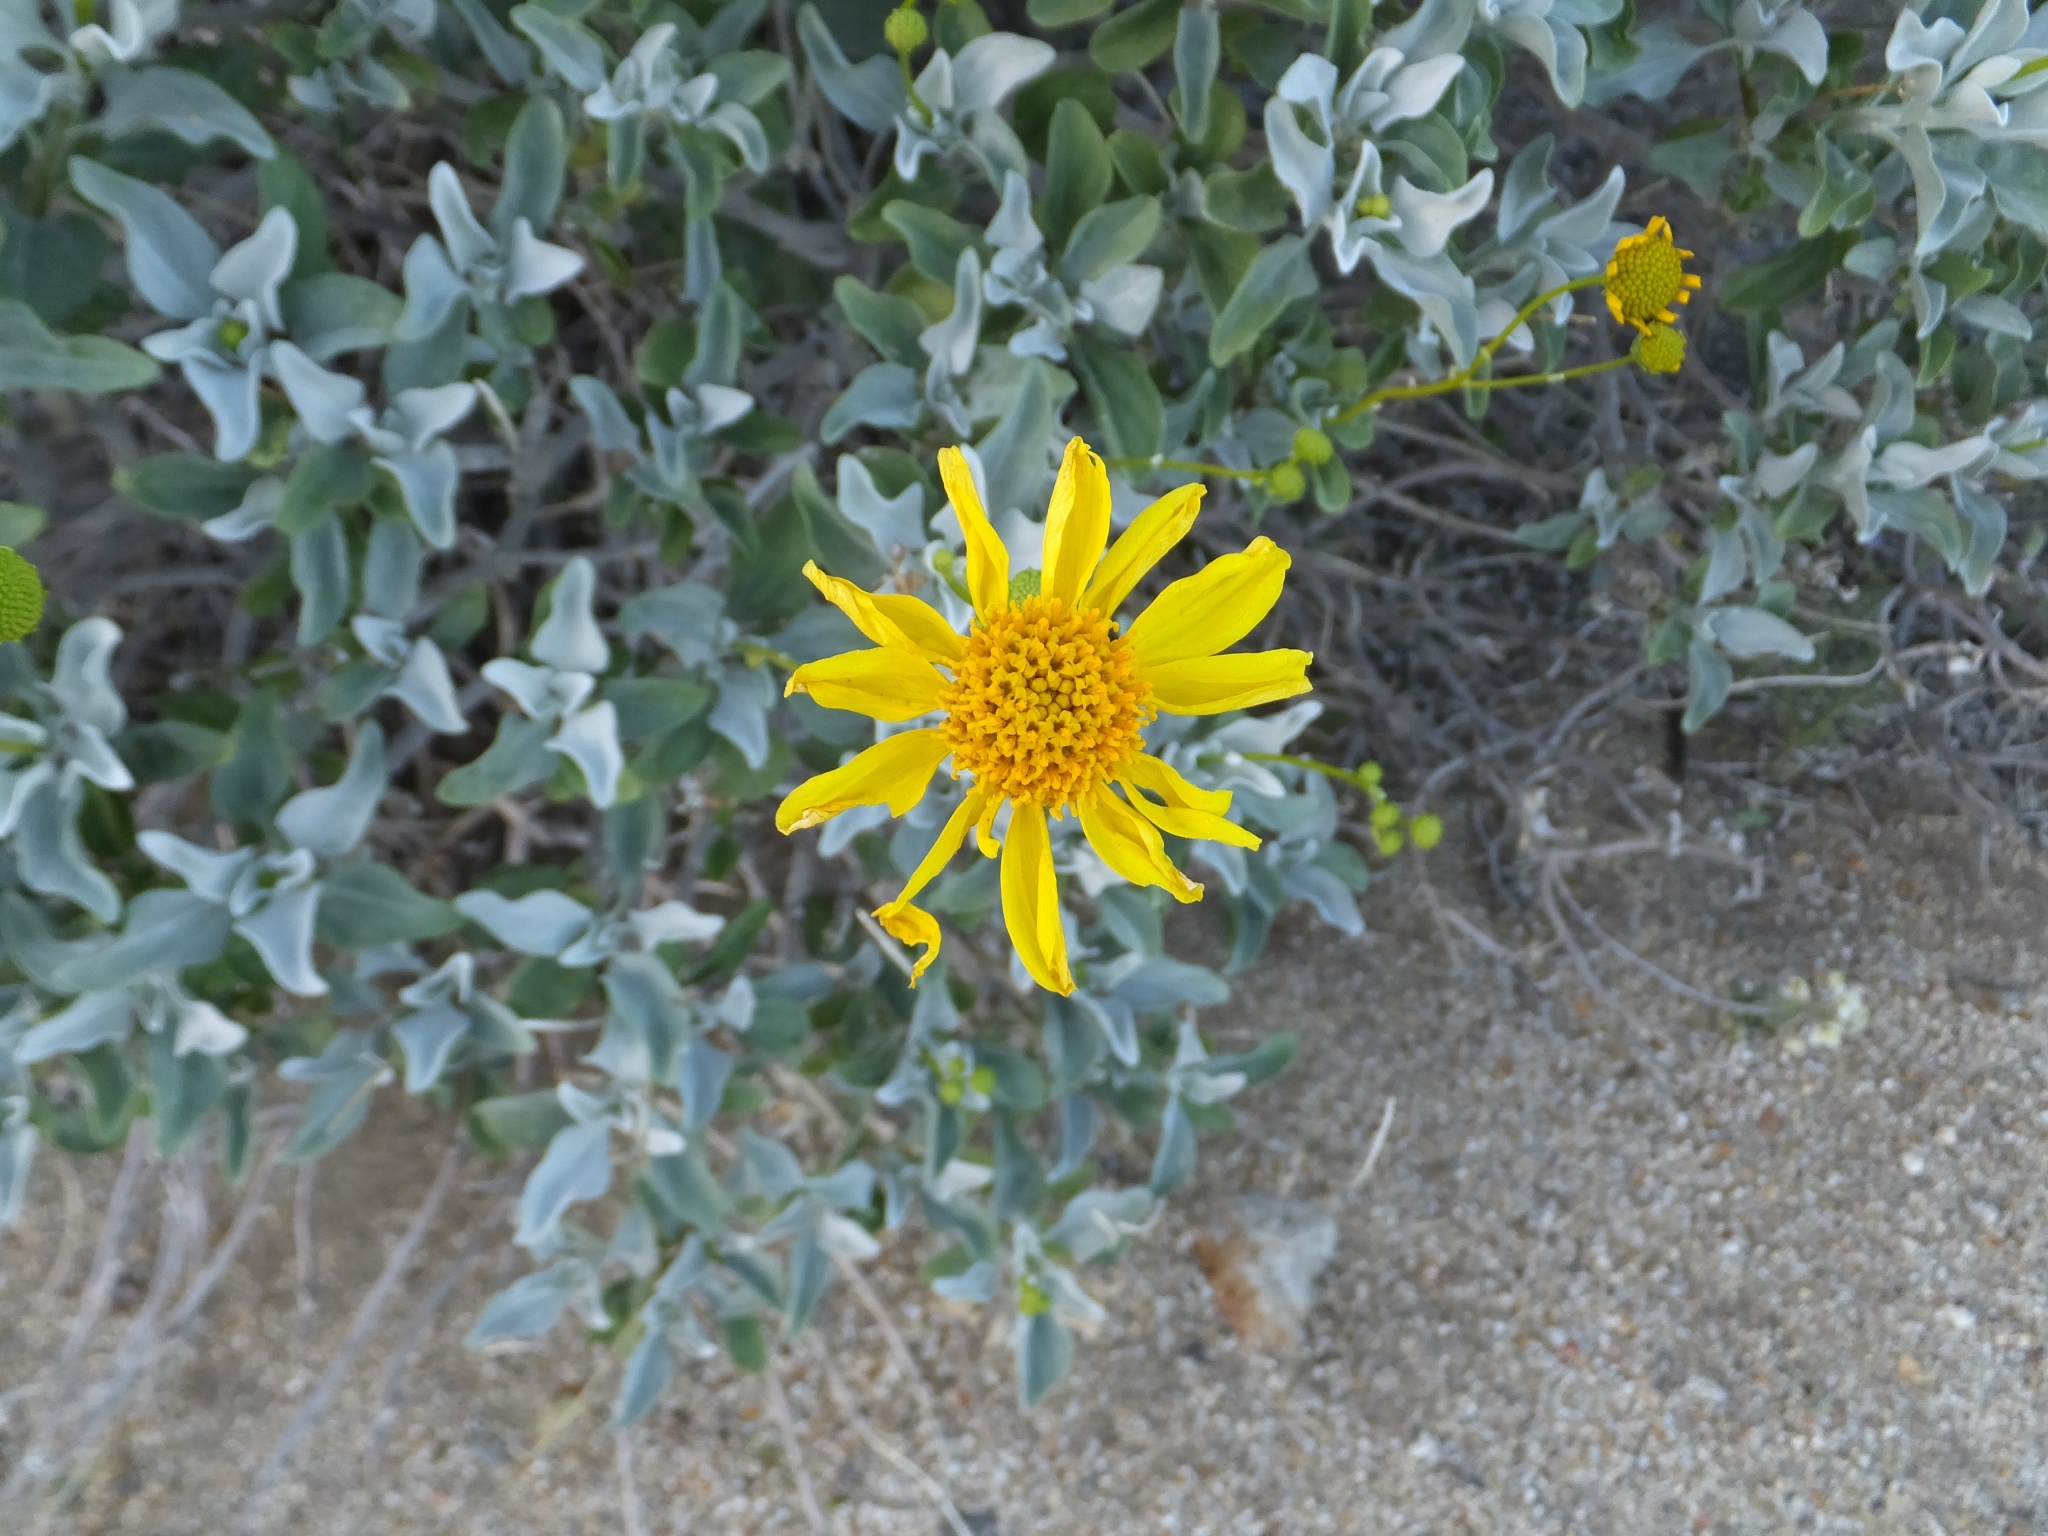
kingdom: Plantae
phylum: Tracheophyta
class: Magnoliopsida
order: Asterales
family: Asteraceae
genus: Encelia
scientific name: Encelia farinosa
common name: Brittlebush
